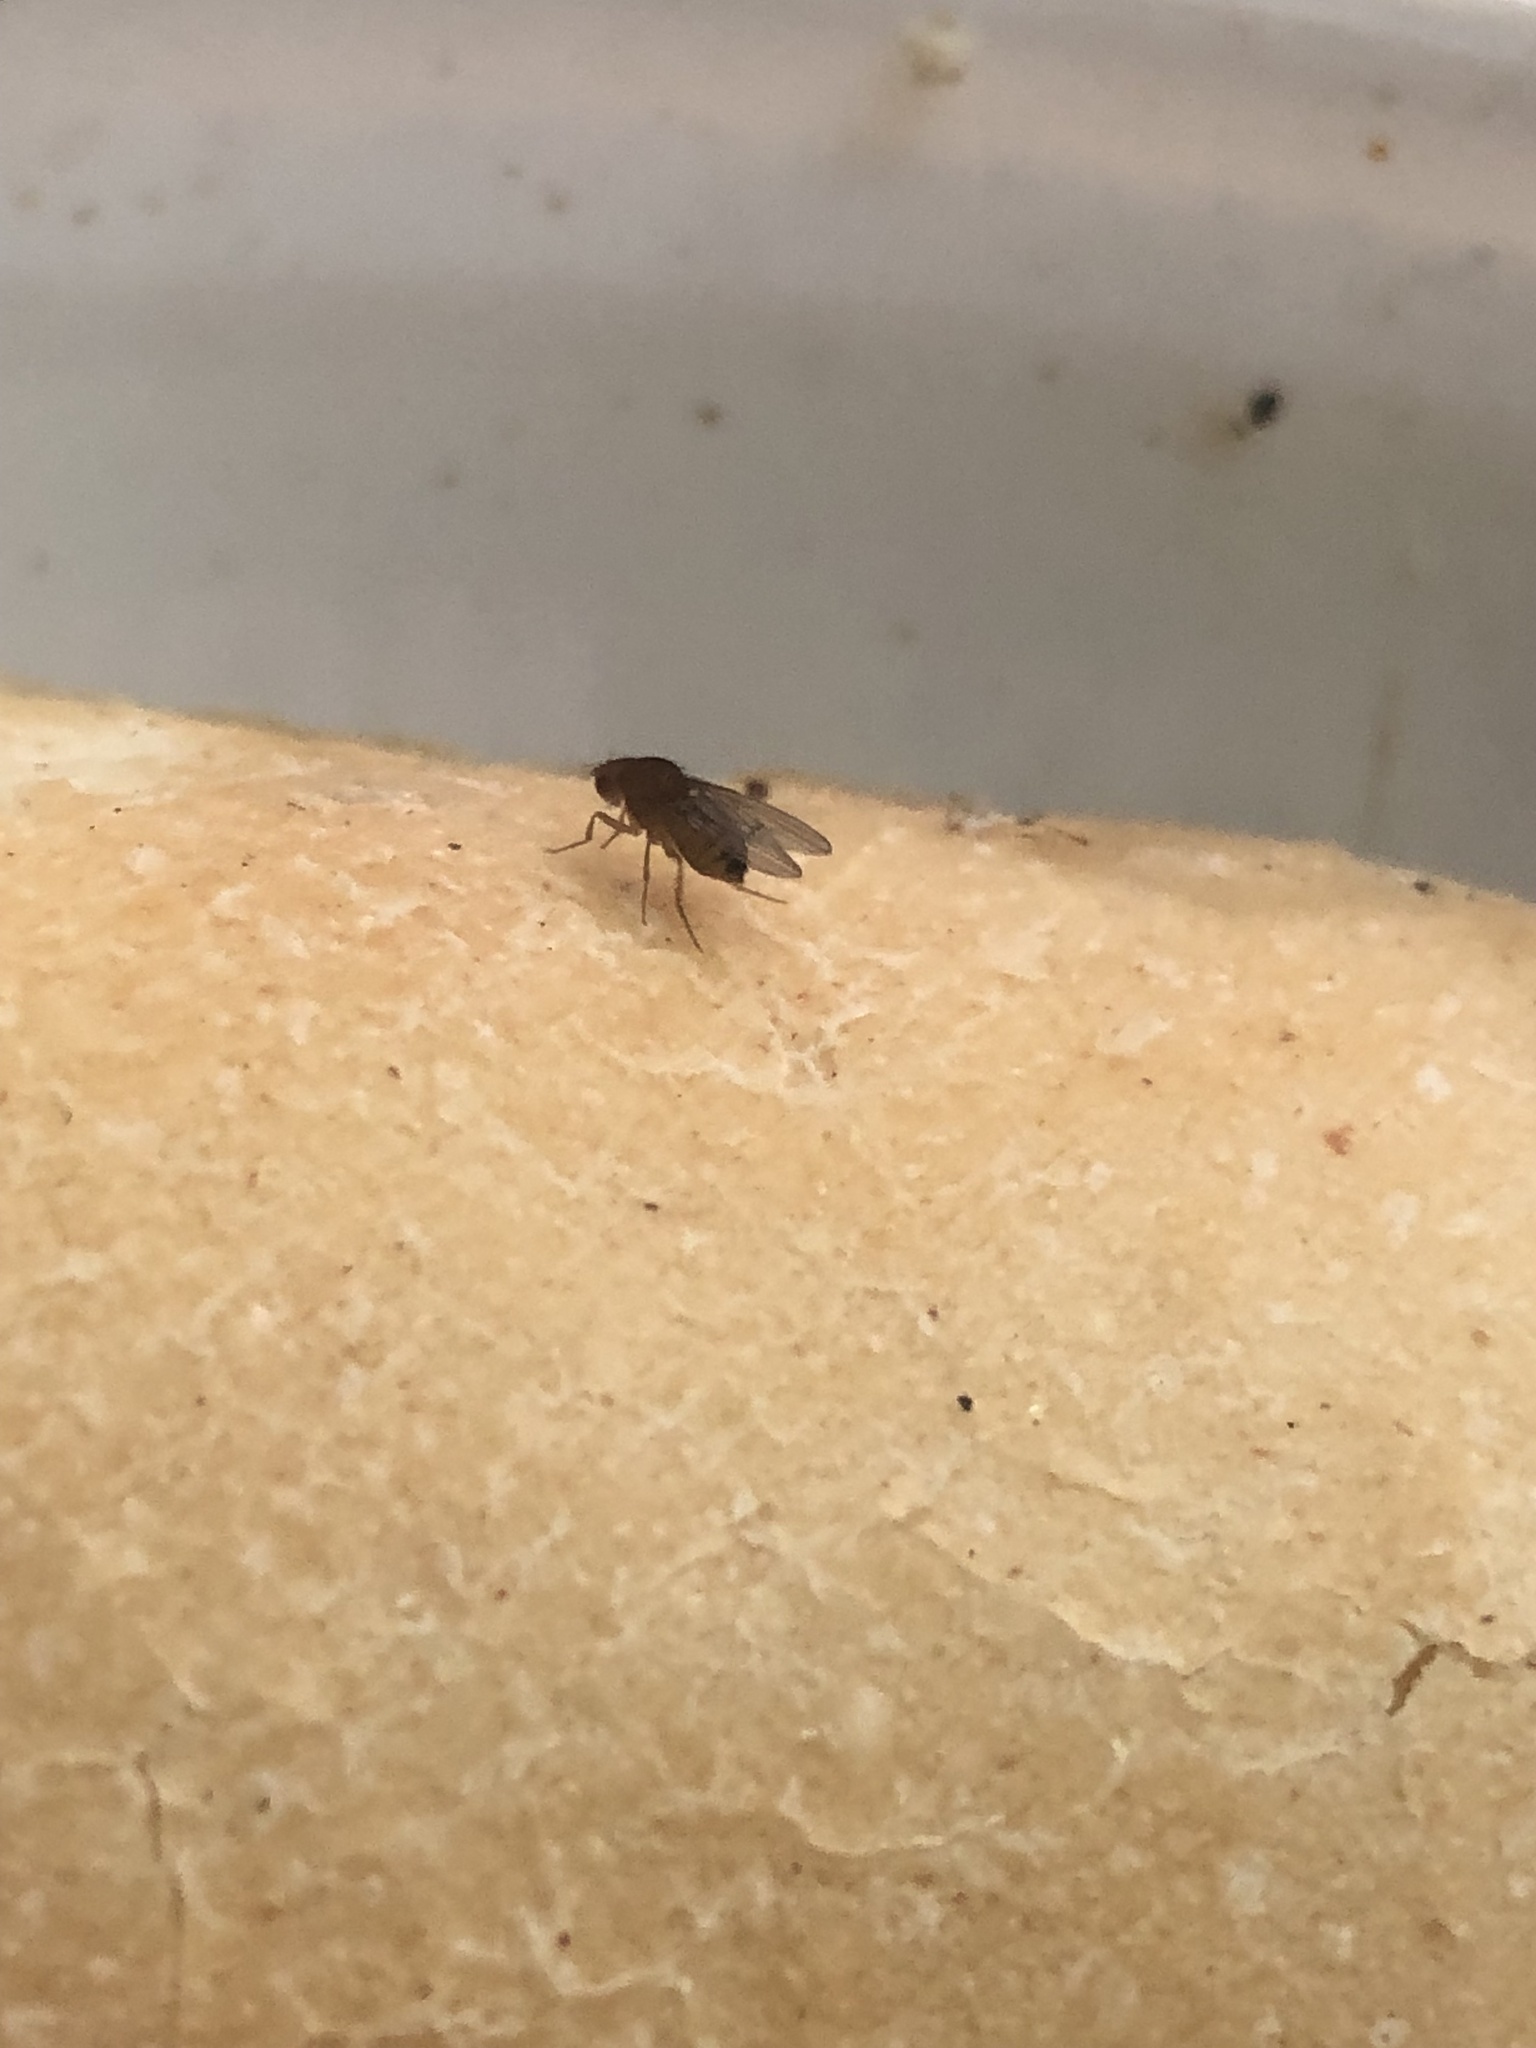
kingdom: Animalia
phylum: Arthropoda
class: Insecta
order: Diptera
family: Drosophilidae
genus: Drosophila
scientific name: Drosophila immigrans
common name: Pomace fly
